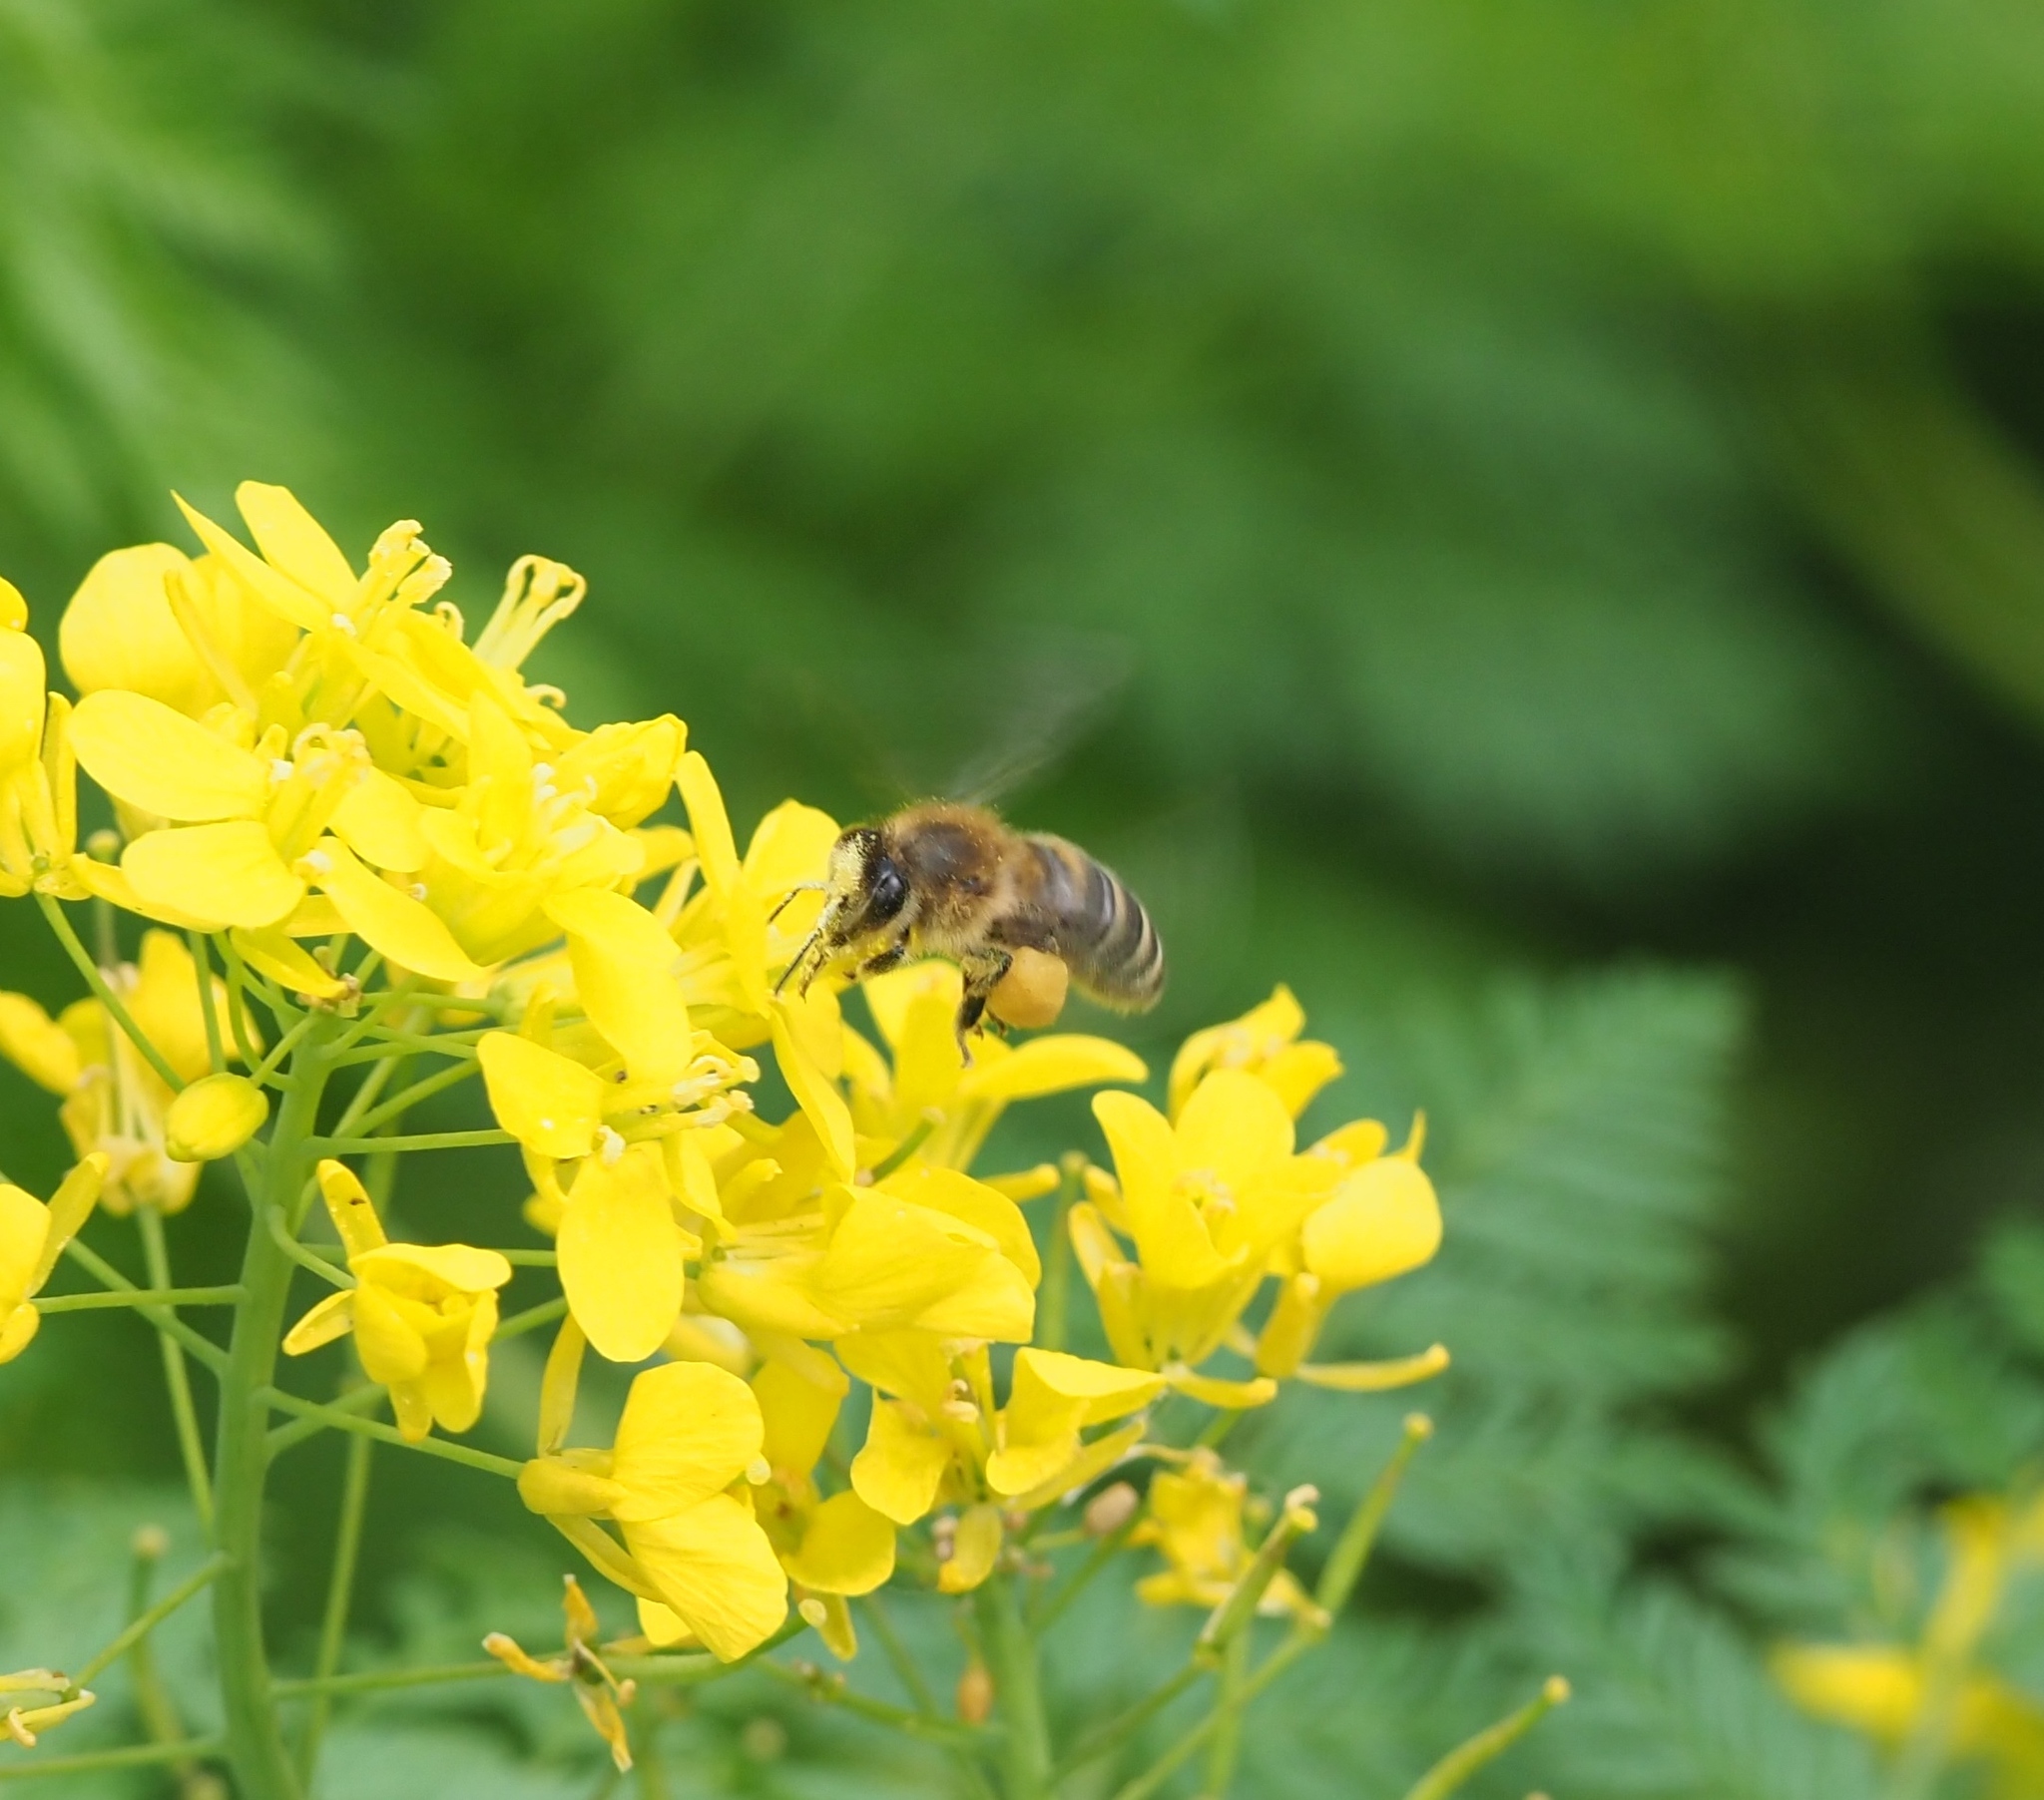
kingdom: Animalia
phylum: Arthropoda
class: Insecta
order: Hymenoptera
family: Apidae
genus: Apis
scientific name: Apis mellifera
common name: Honey bee
